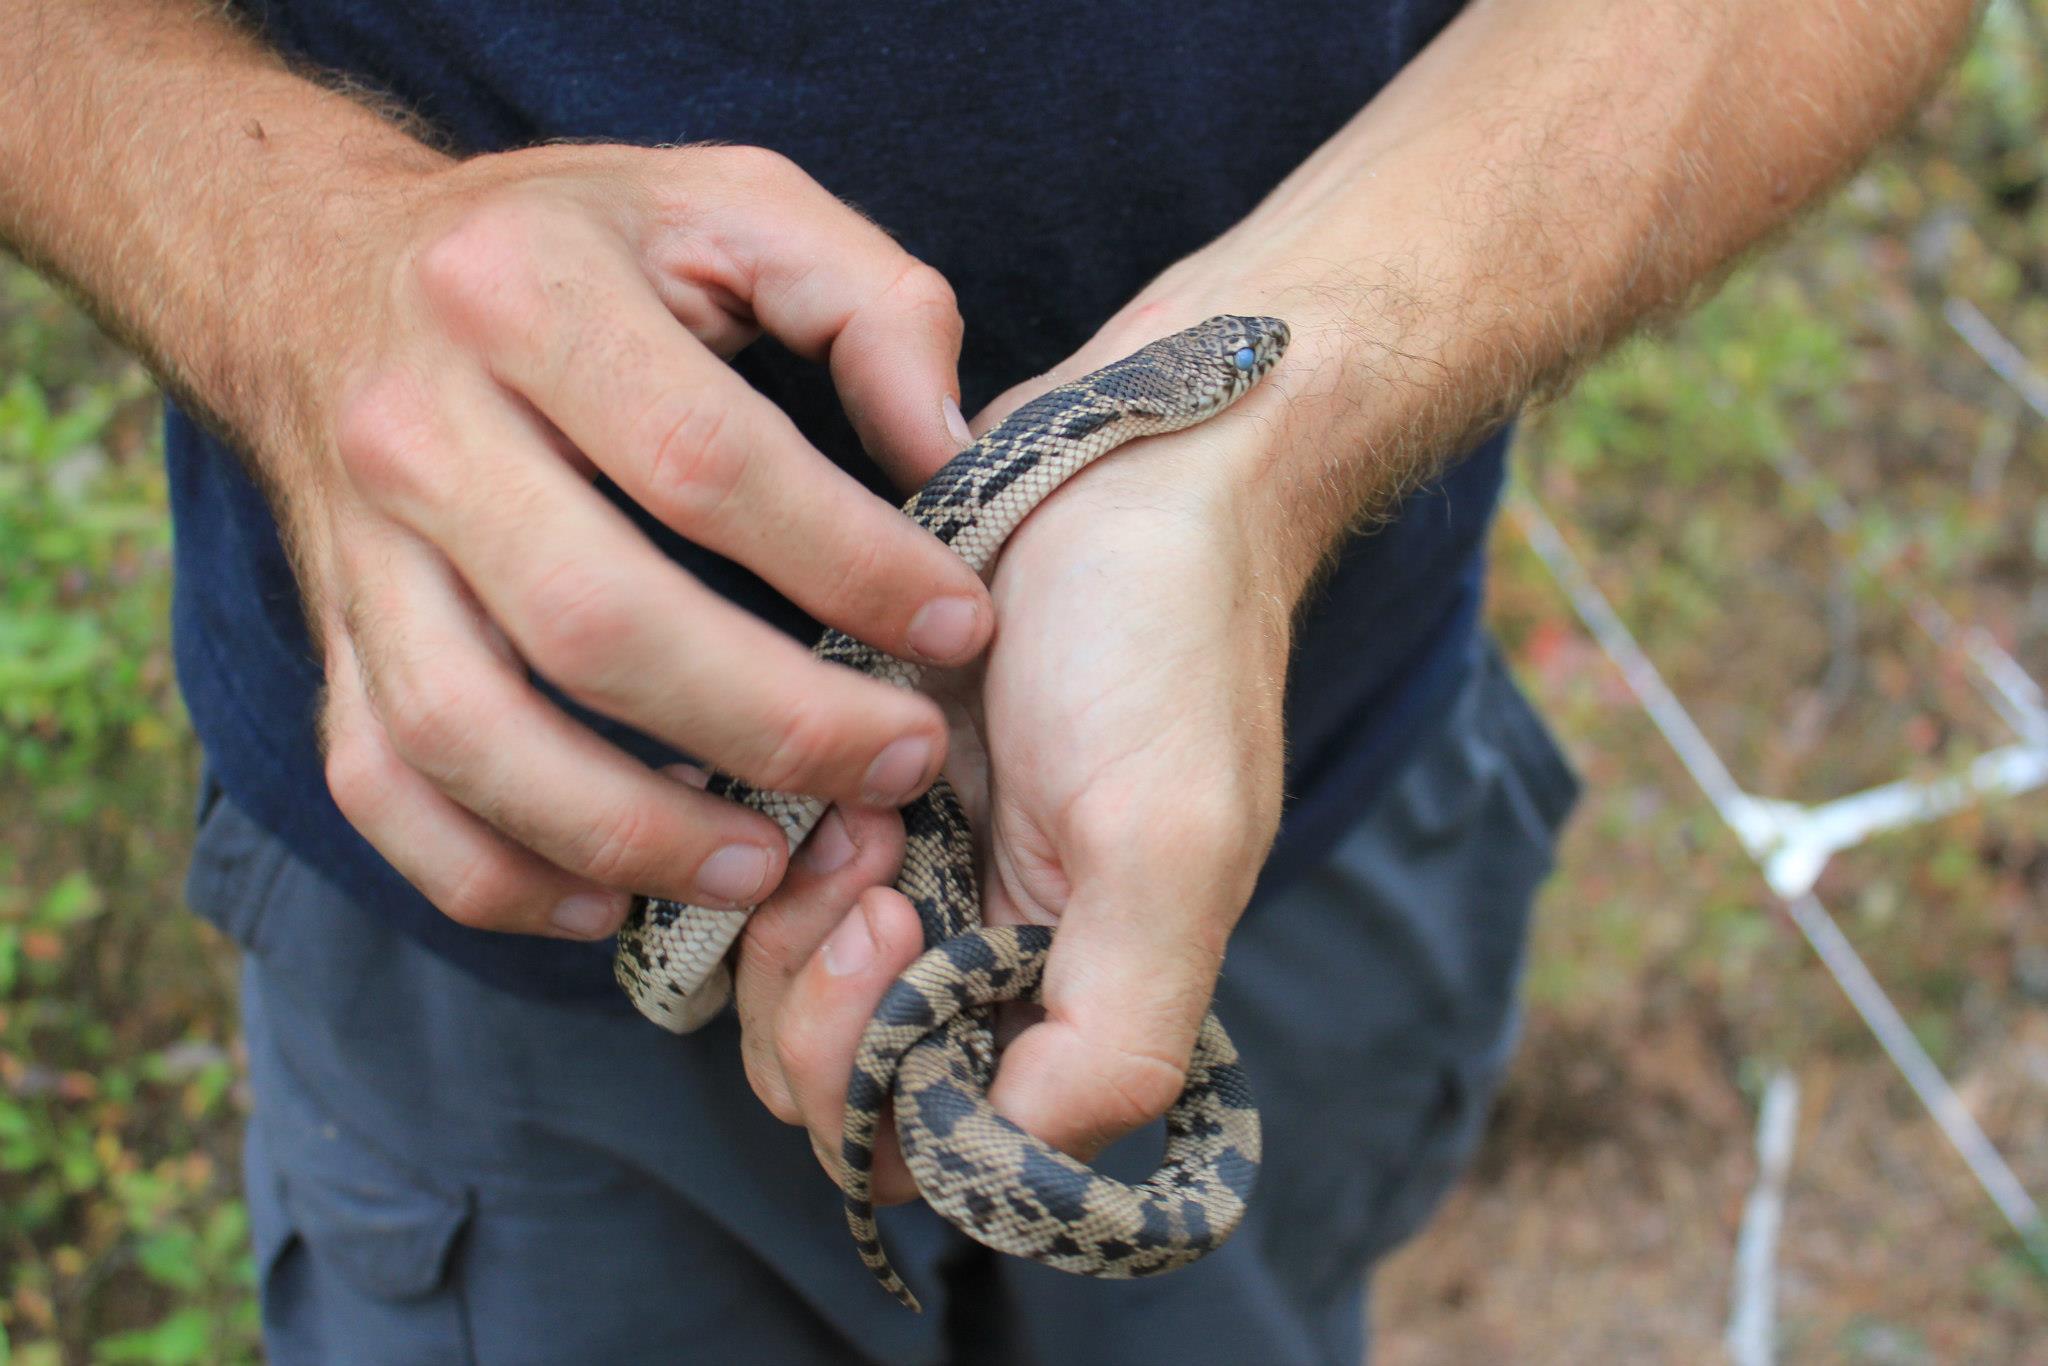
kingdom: Animalia
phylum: Chordata
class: Squamata
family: Colubridae
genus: Pituophis
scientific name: Pituophis melanoleucus
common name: Pine snake
